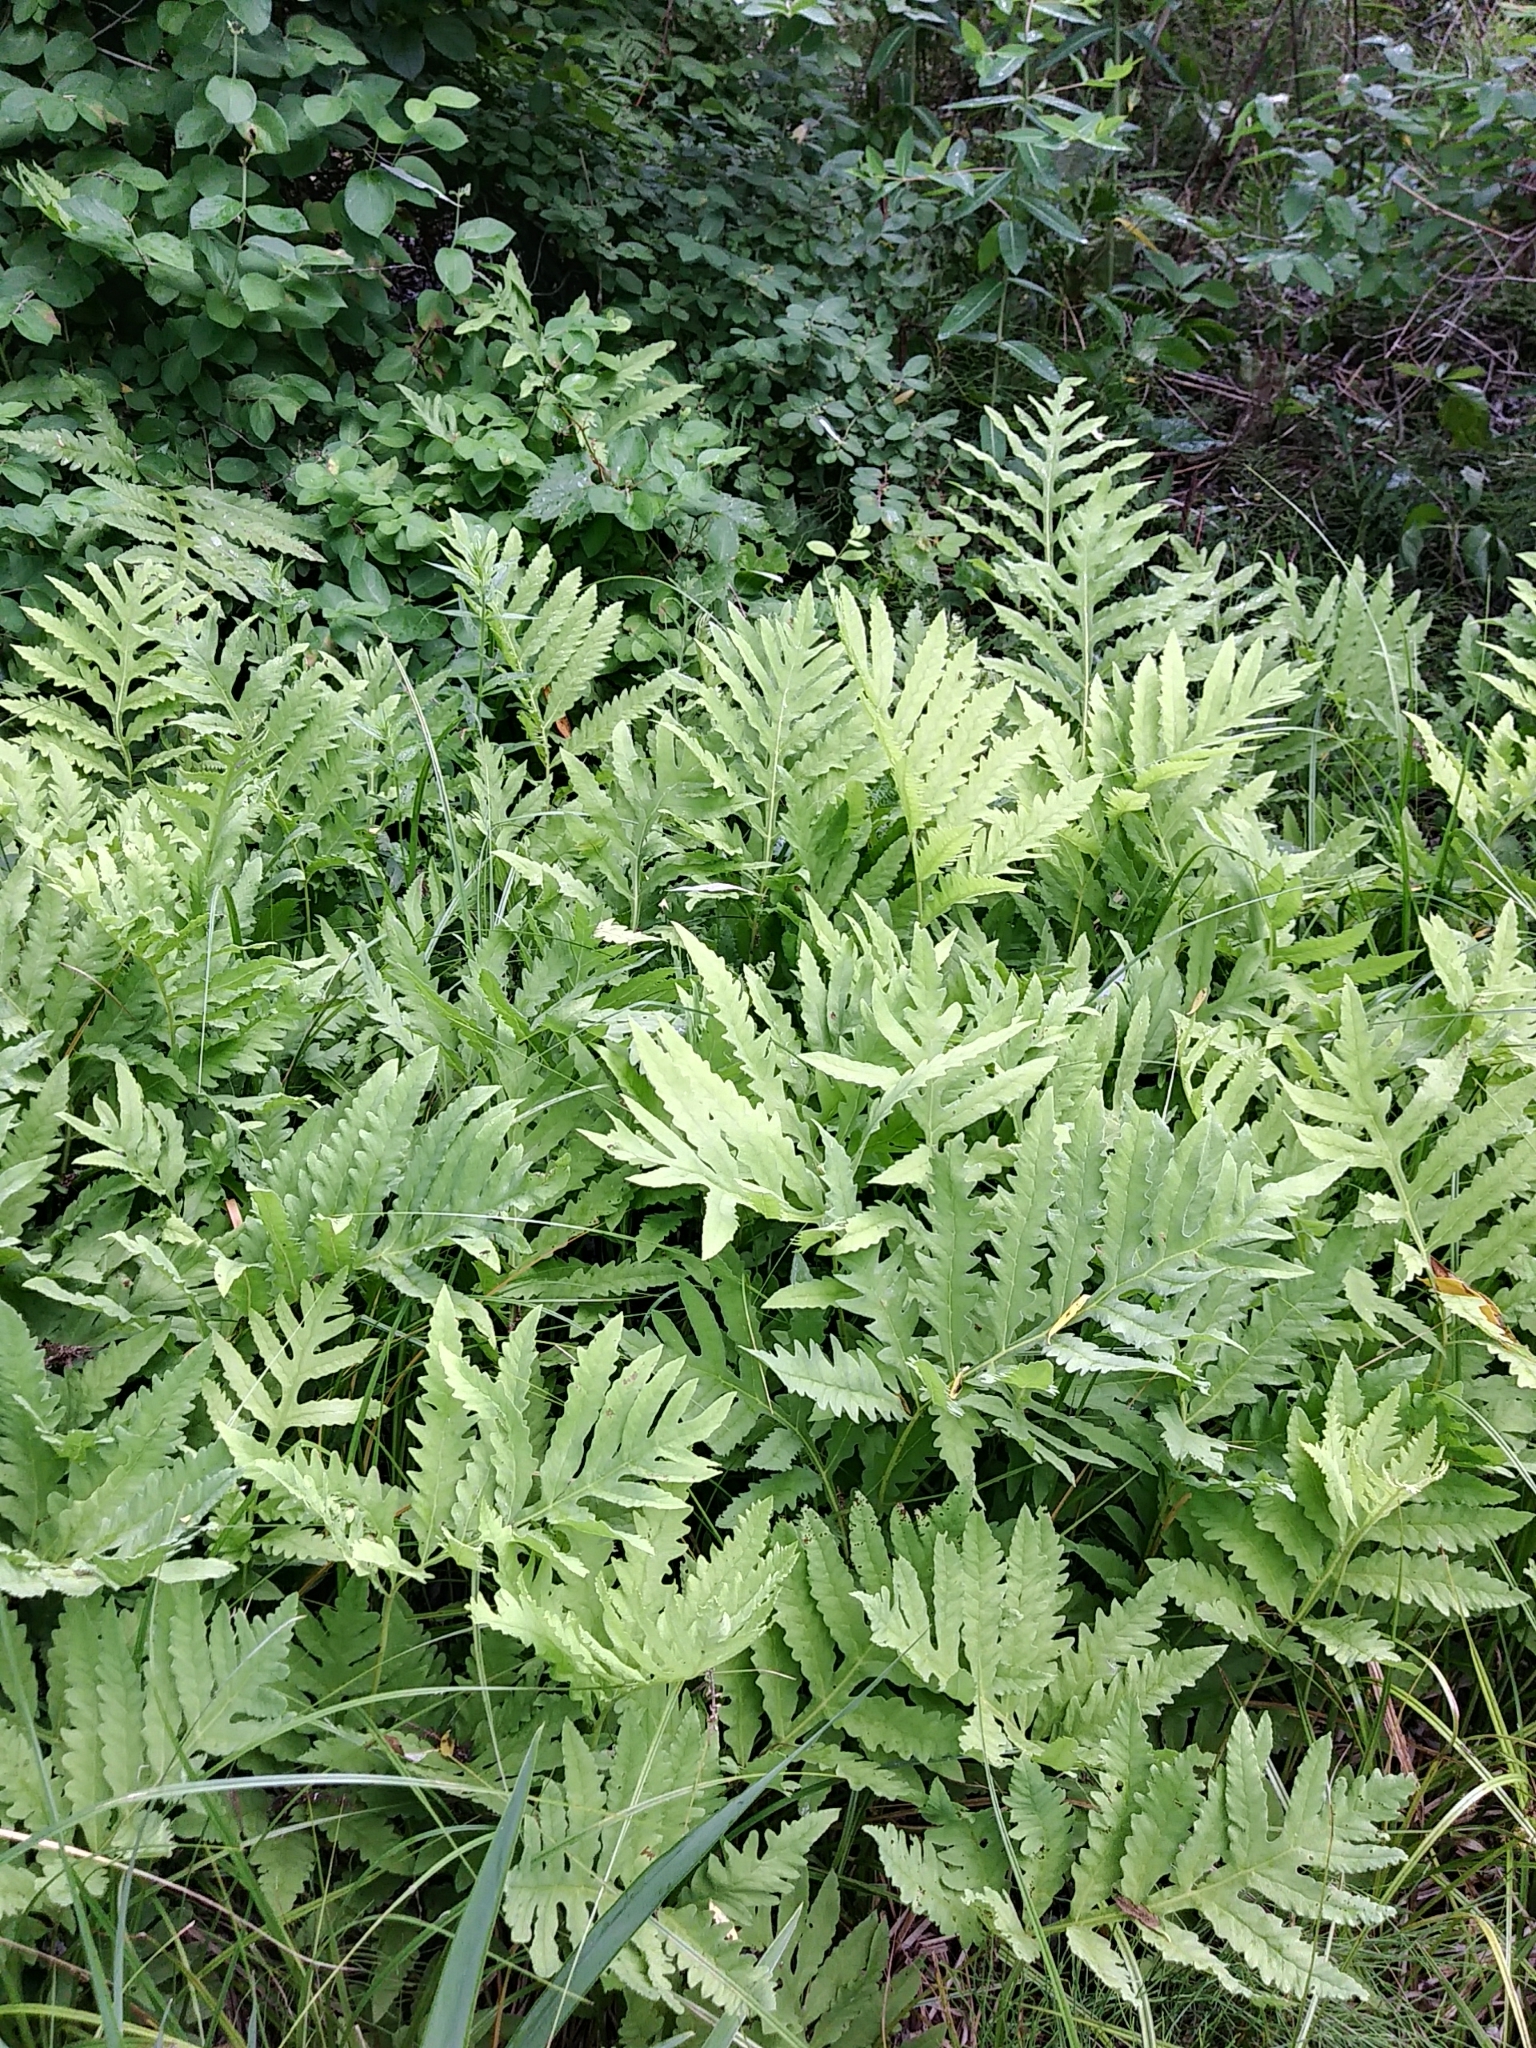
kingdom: Plantae
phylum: Tracheophyta
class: Polypodiopsida
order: Polypodiales
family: Onocleaceae
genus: Onoclea
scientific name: Onoclea sensibilis
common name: Sensitive fern
